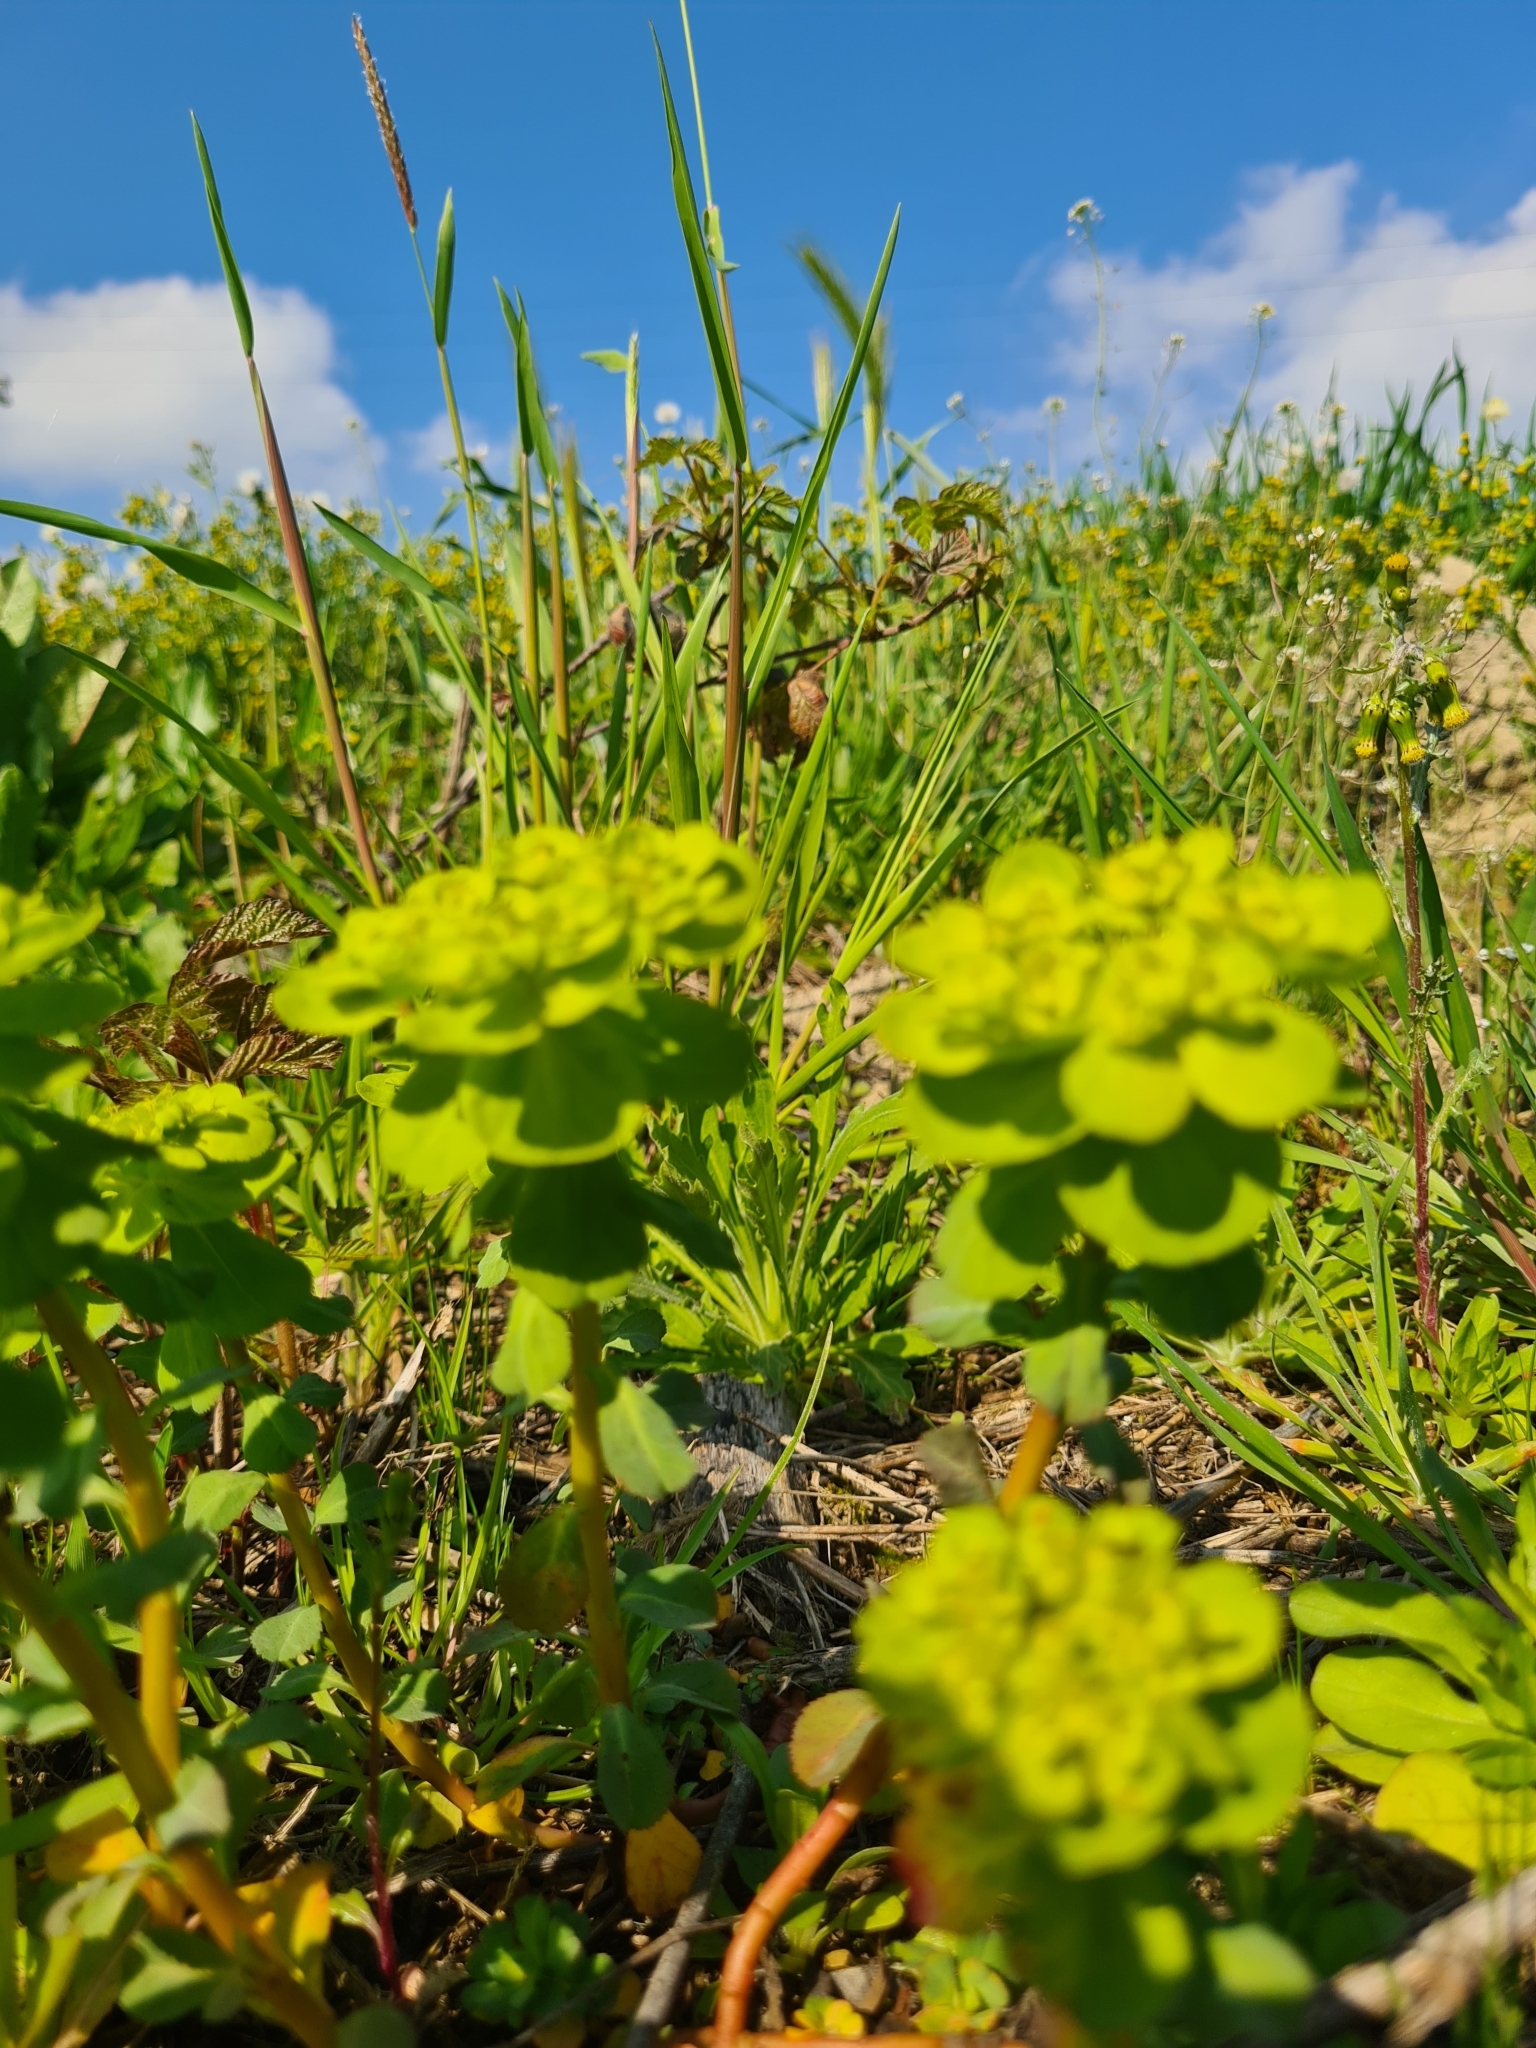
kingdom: Plantae
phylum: Tracheophyta
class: Magnoliopsida
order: Malpighiales
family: Euphorbiaceae
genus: Euphorbia
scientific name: Euphorbia helioscopia
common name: Sun spurge
